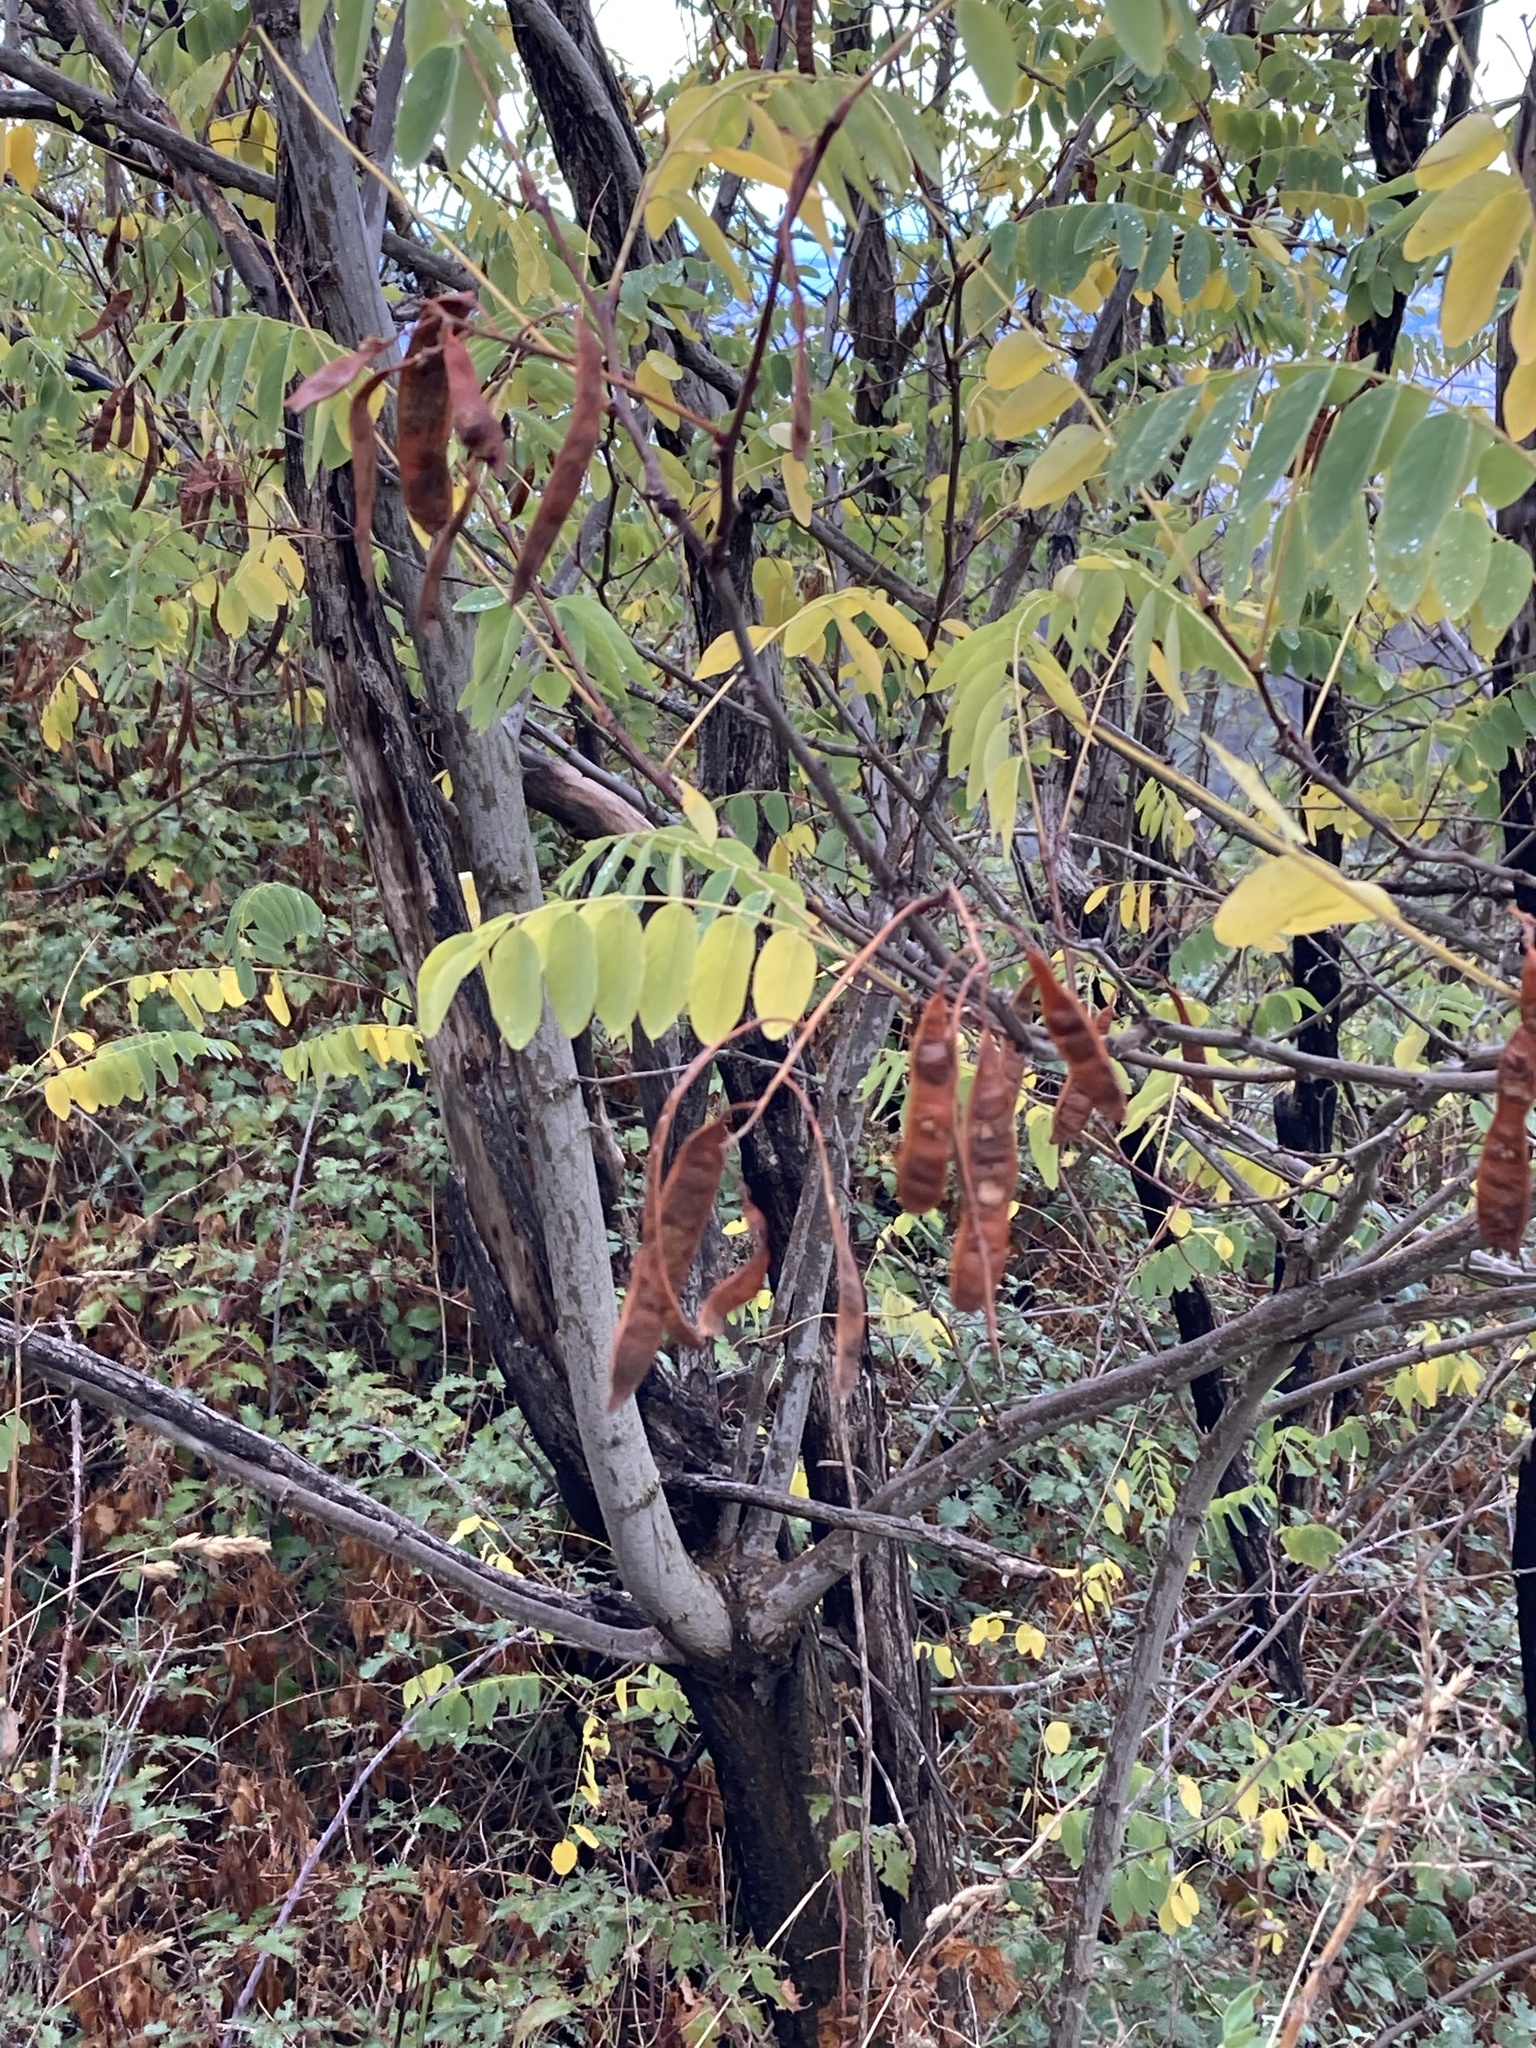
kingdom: Plantae
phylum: Tracheophyta
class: Magnoliopsida
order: Fabales
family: Fabaceae
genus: Robinia
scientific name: Robinia pseudoacacia
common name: Black locust
